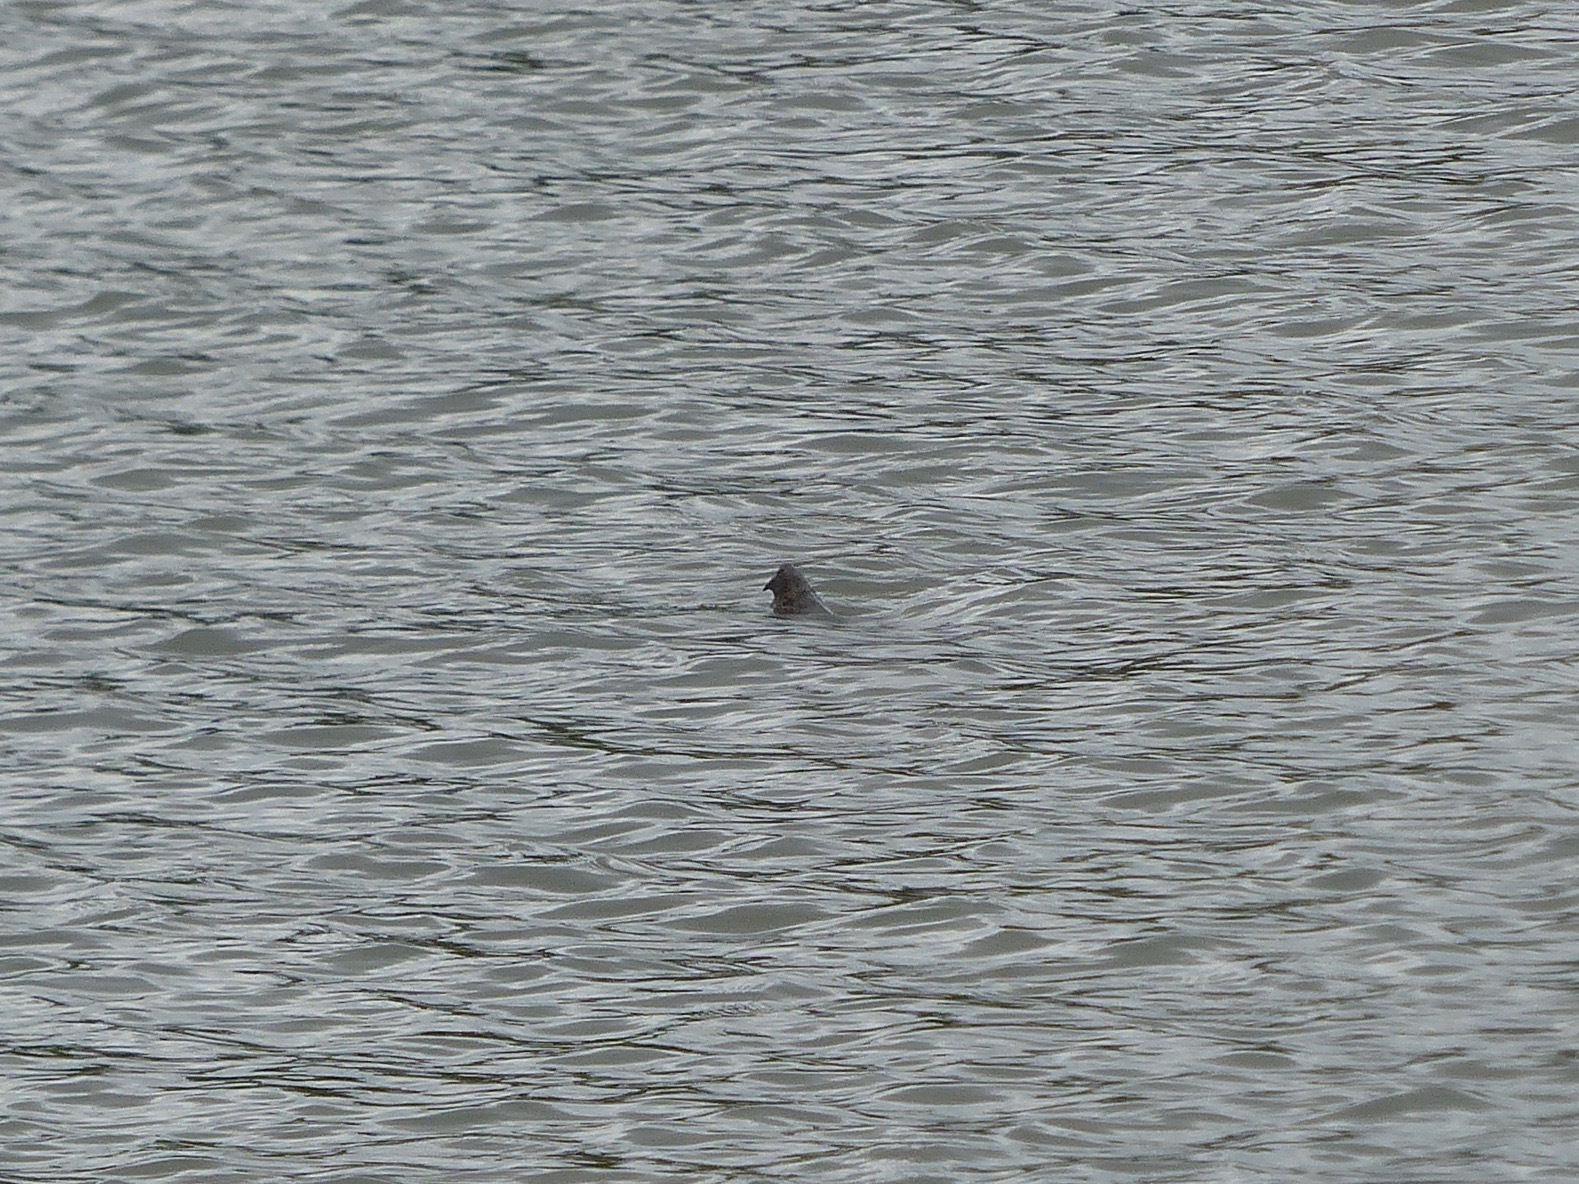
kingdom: Animalia
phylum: Chordata
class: Testudines
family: Chelydridae
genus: Macrochelys
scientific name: Macrochelys temminckii
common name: Alligator snapping turtle
